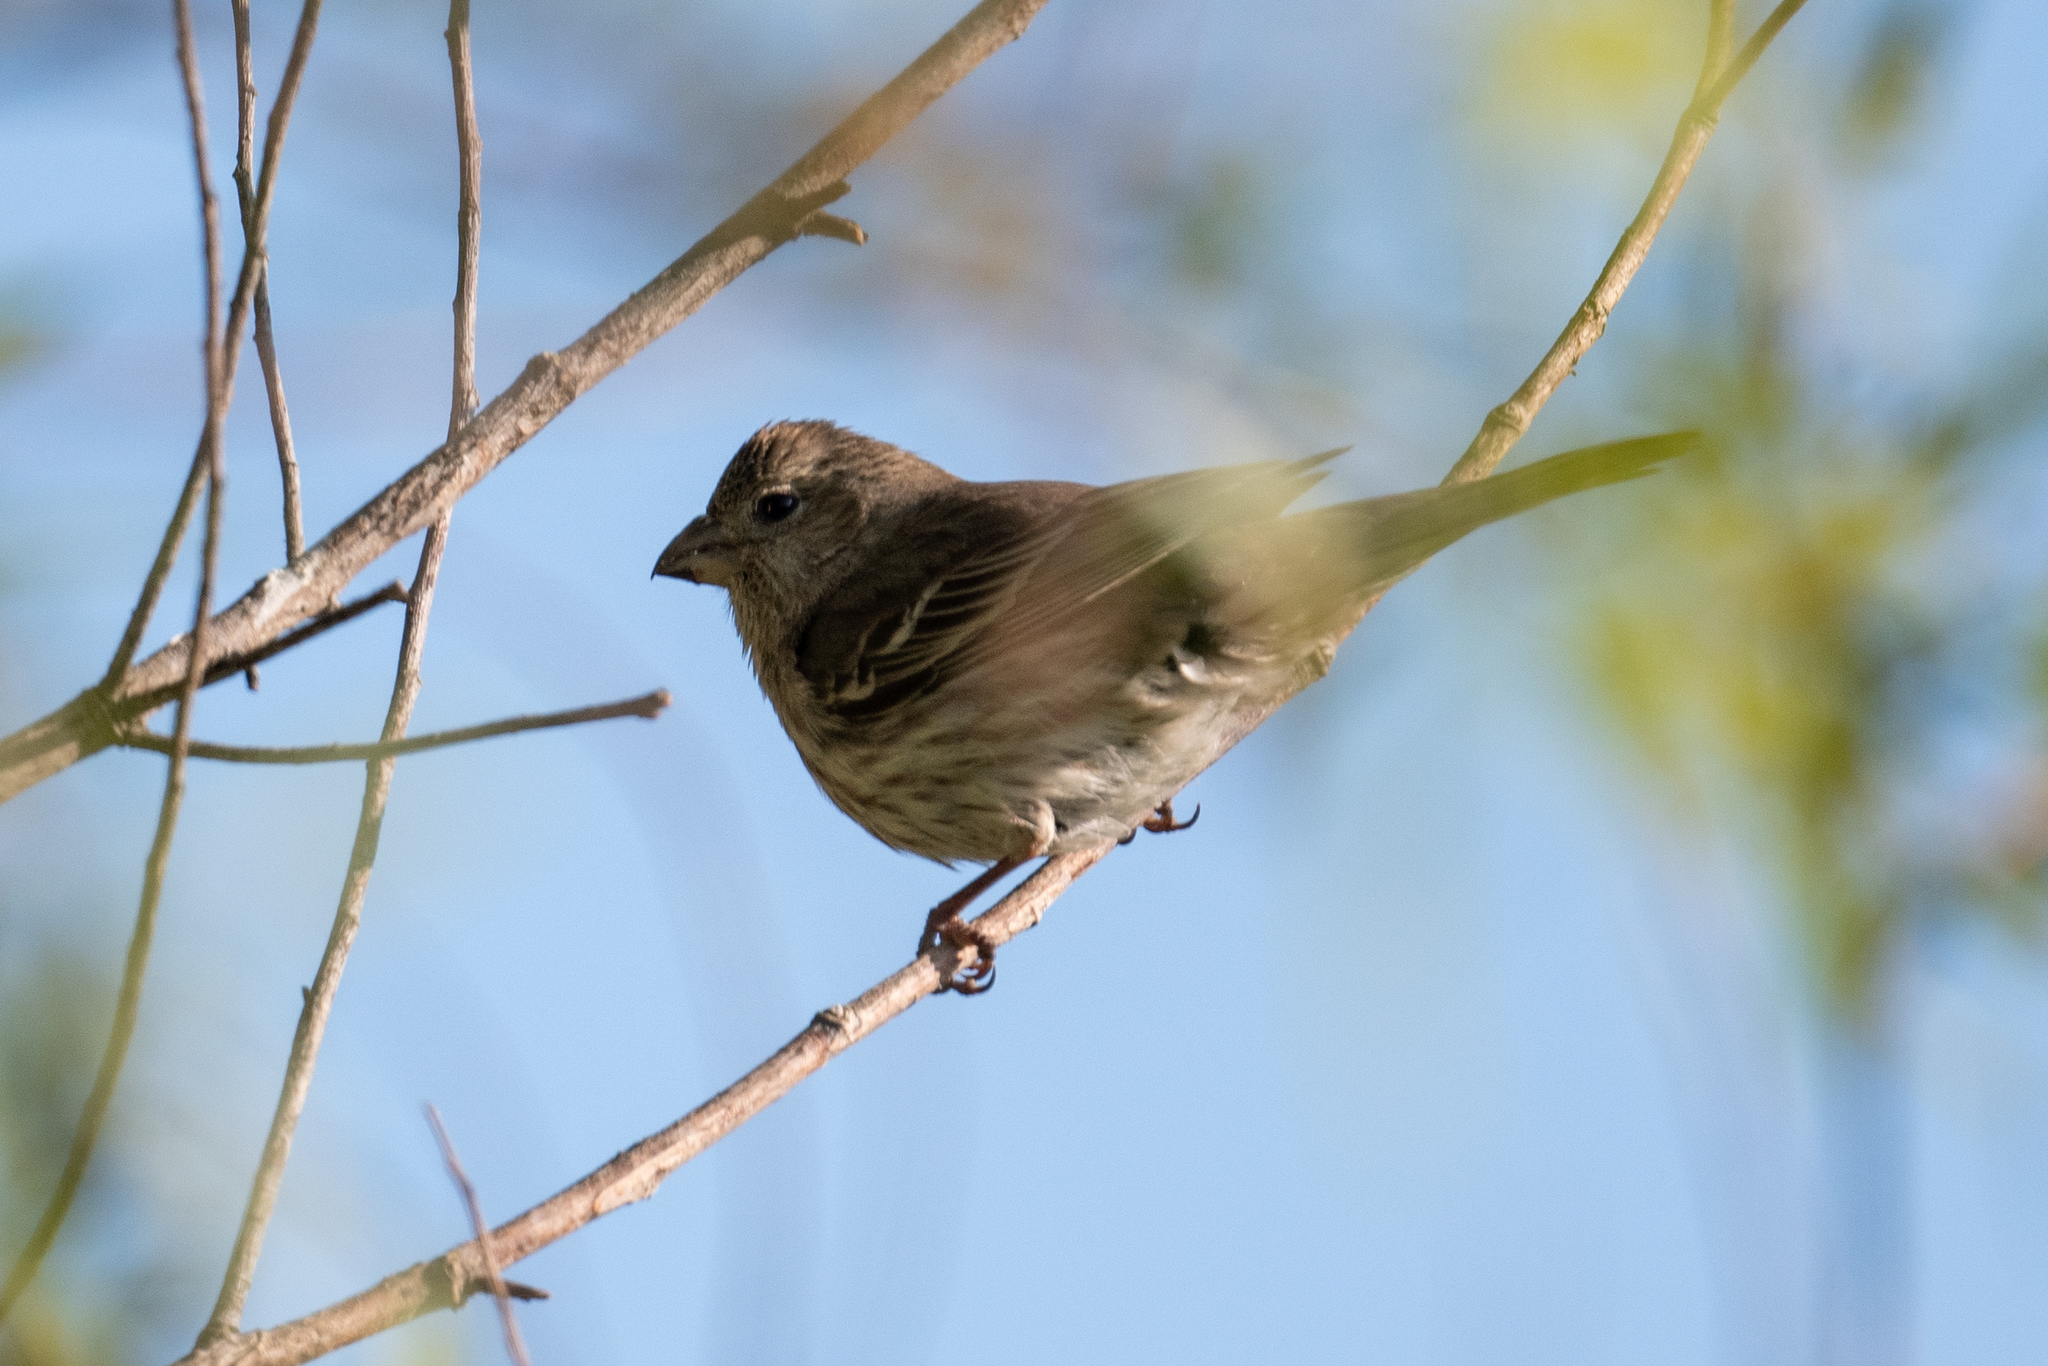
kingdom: Animalia
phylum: Chordata
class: Aves
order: Passeriformes
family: Fringillidae
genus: Haemorhous
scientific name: Haemorhous mexicanus
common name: House finch
